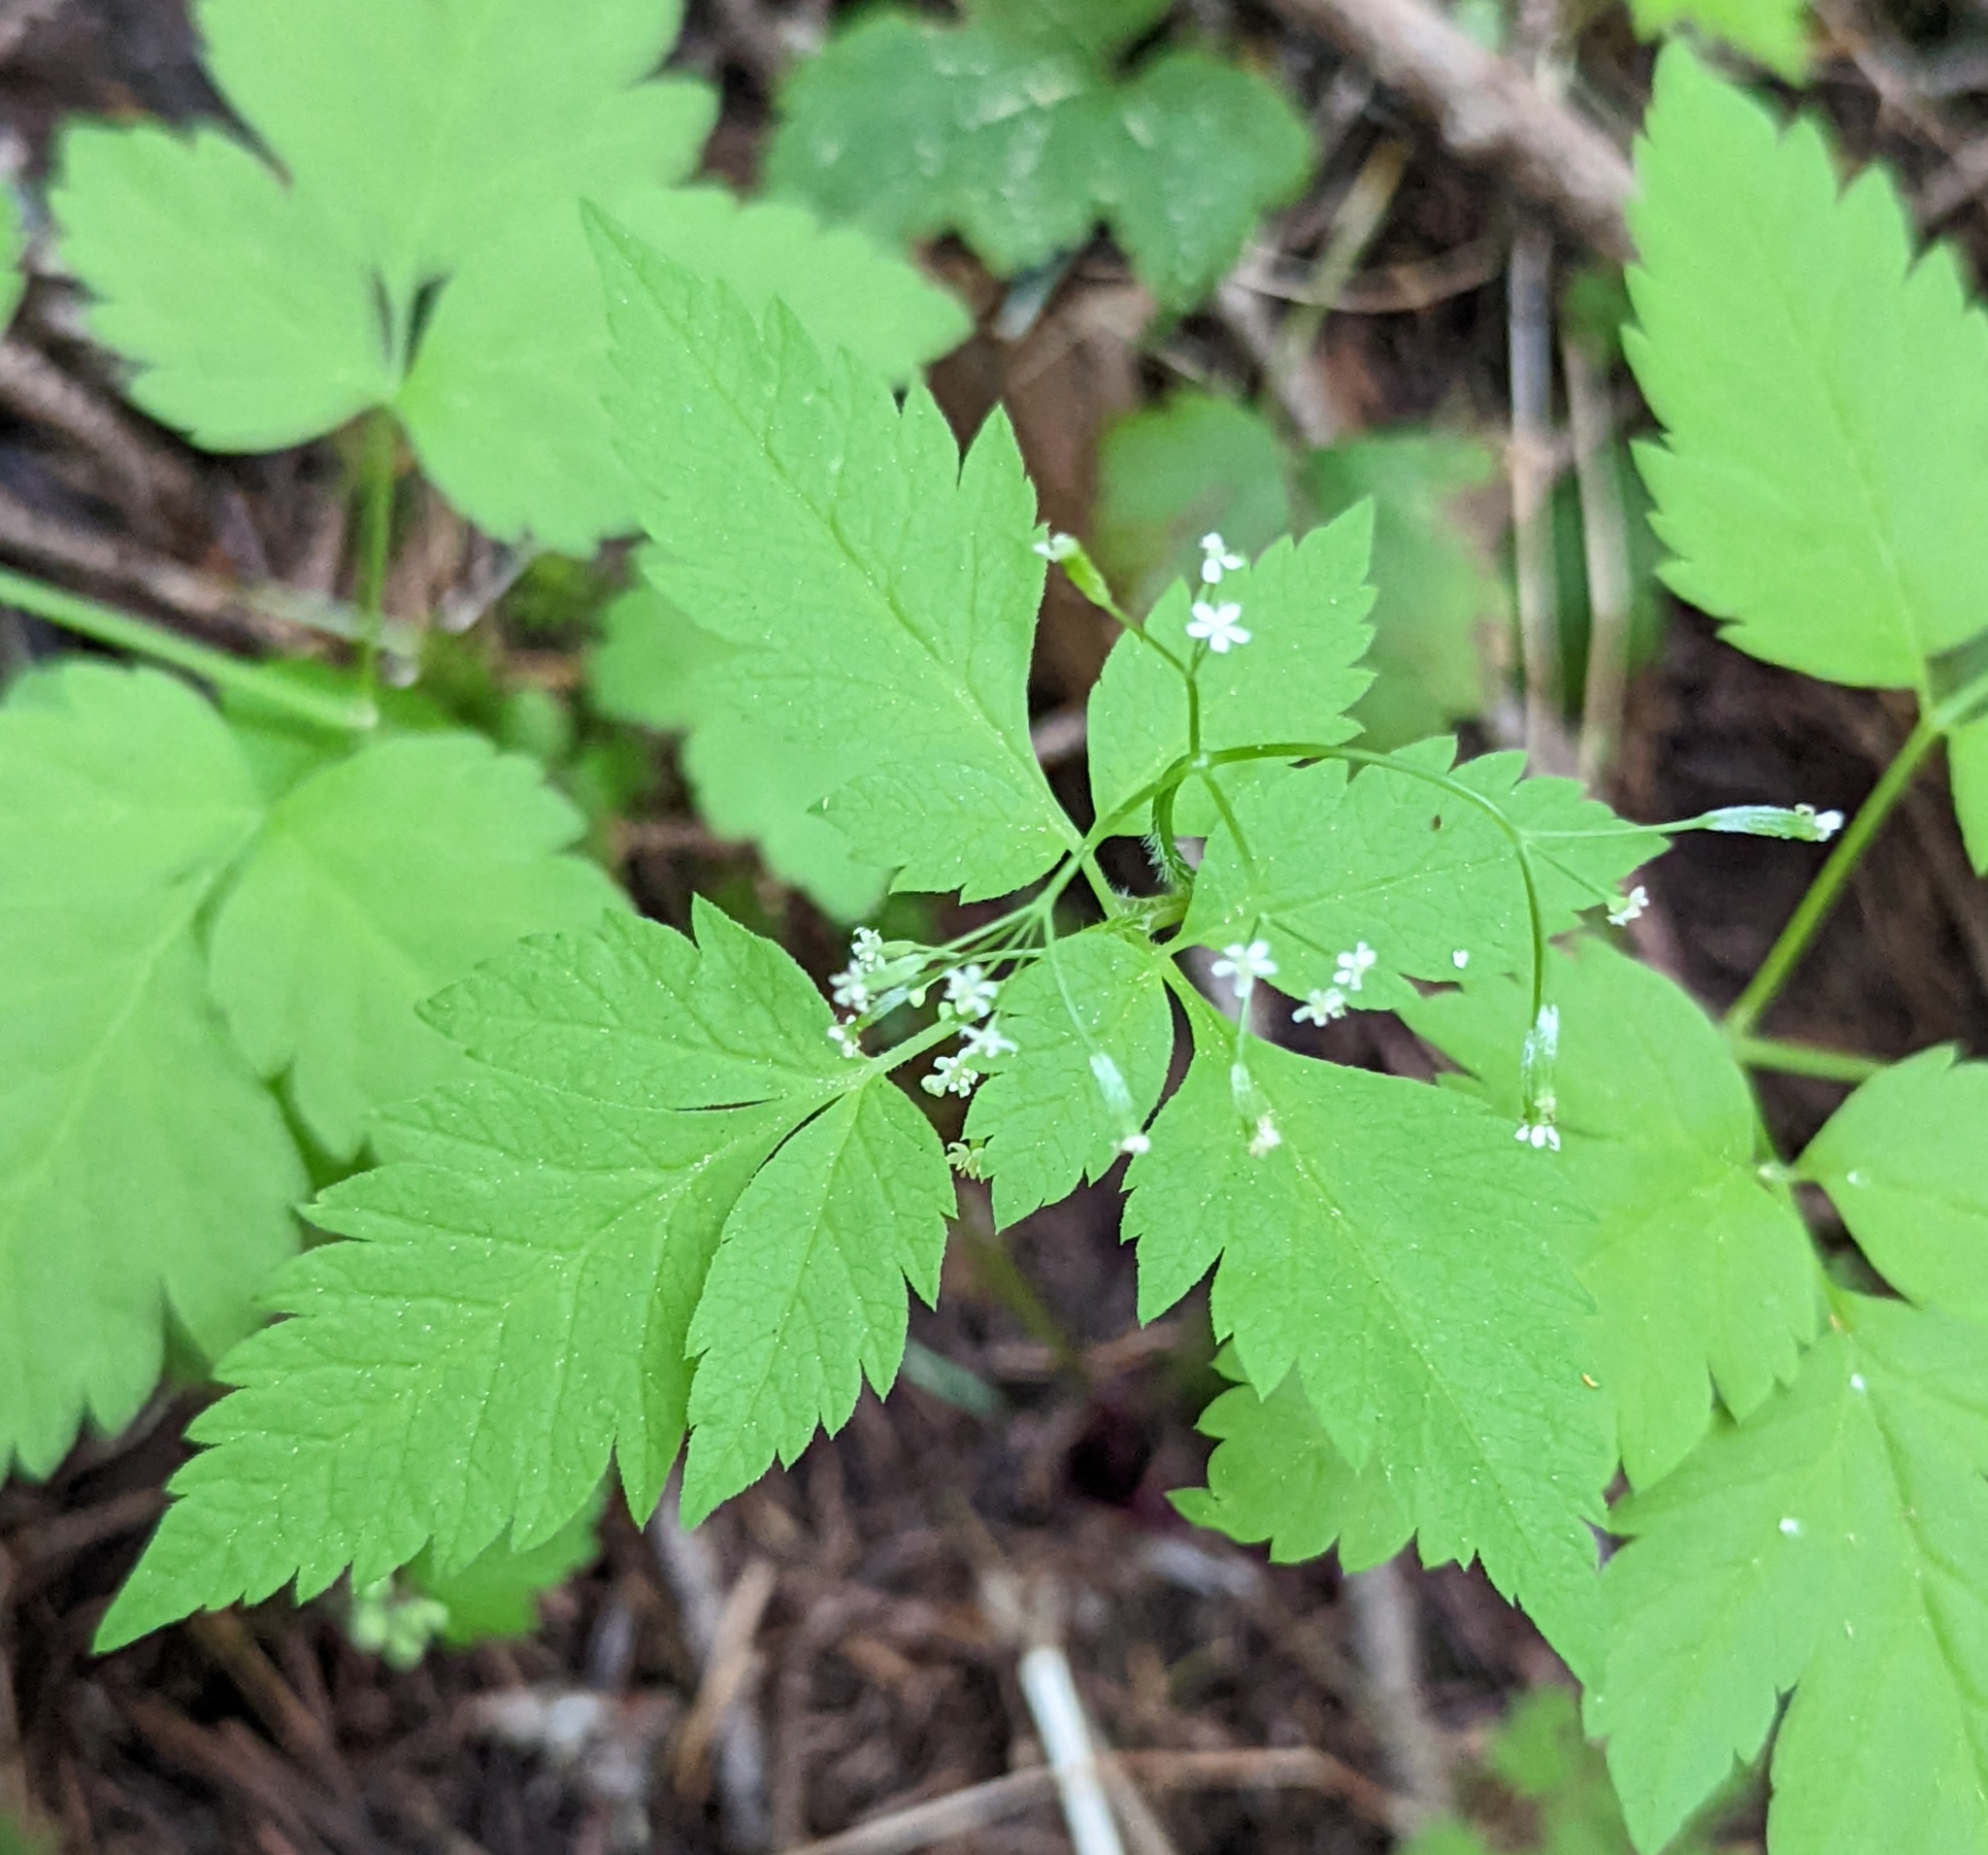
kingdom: Plantae
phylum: Tracheophyta
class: Magnoliopsida
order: Apiales
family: Apiaceae
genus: Osmorhiza
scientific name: Osmorhiza berteroi
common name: Mountain sweet cicely
